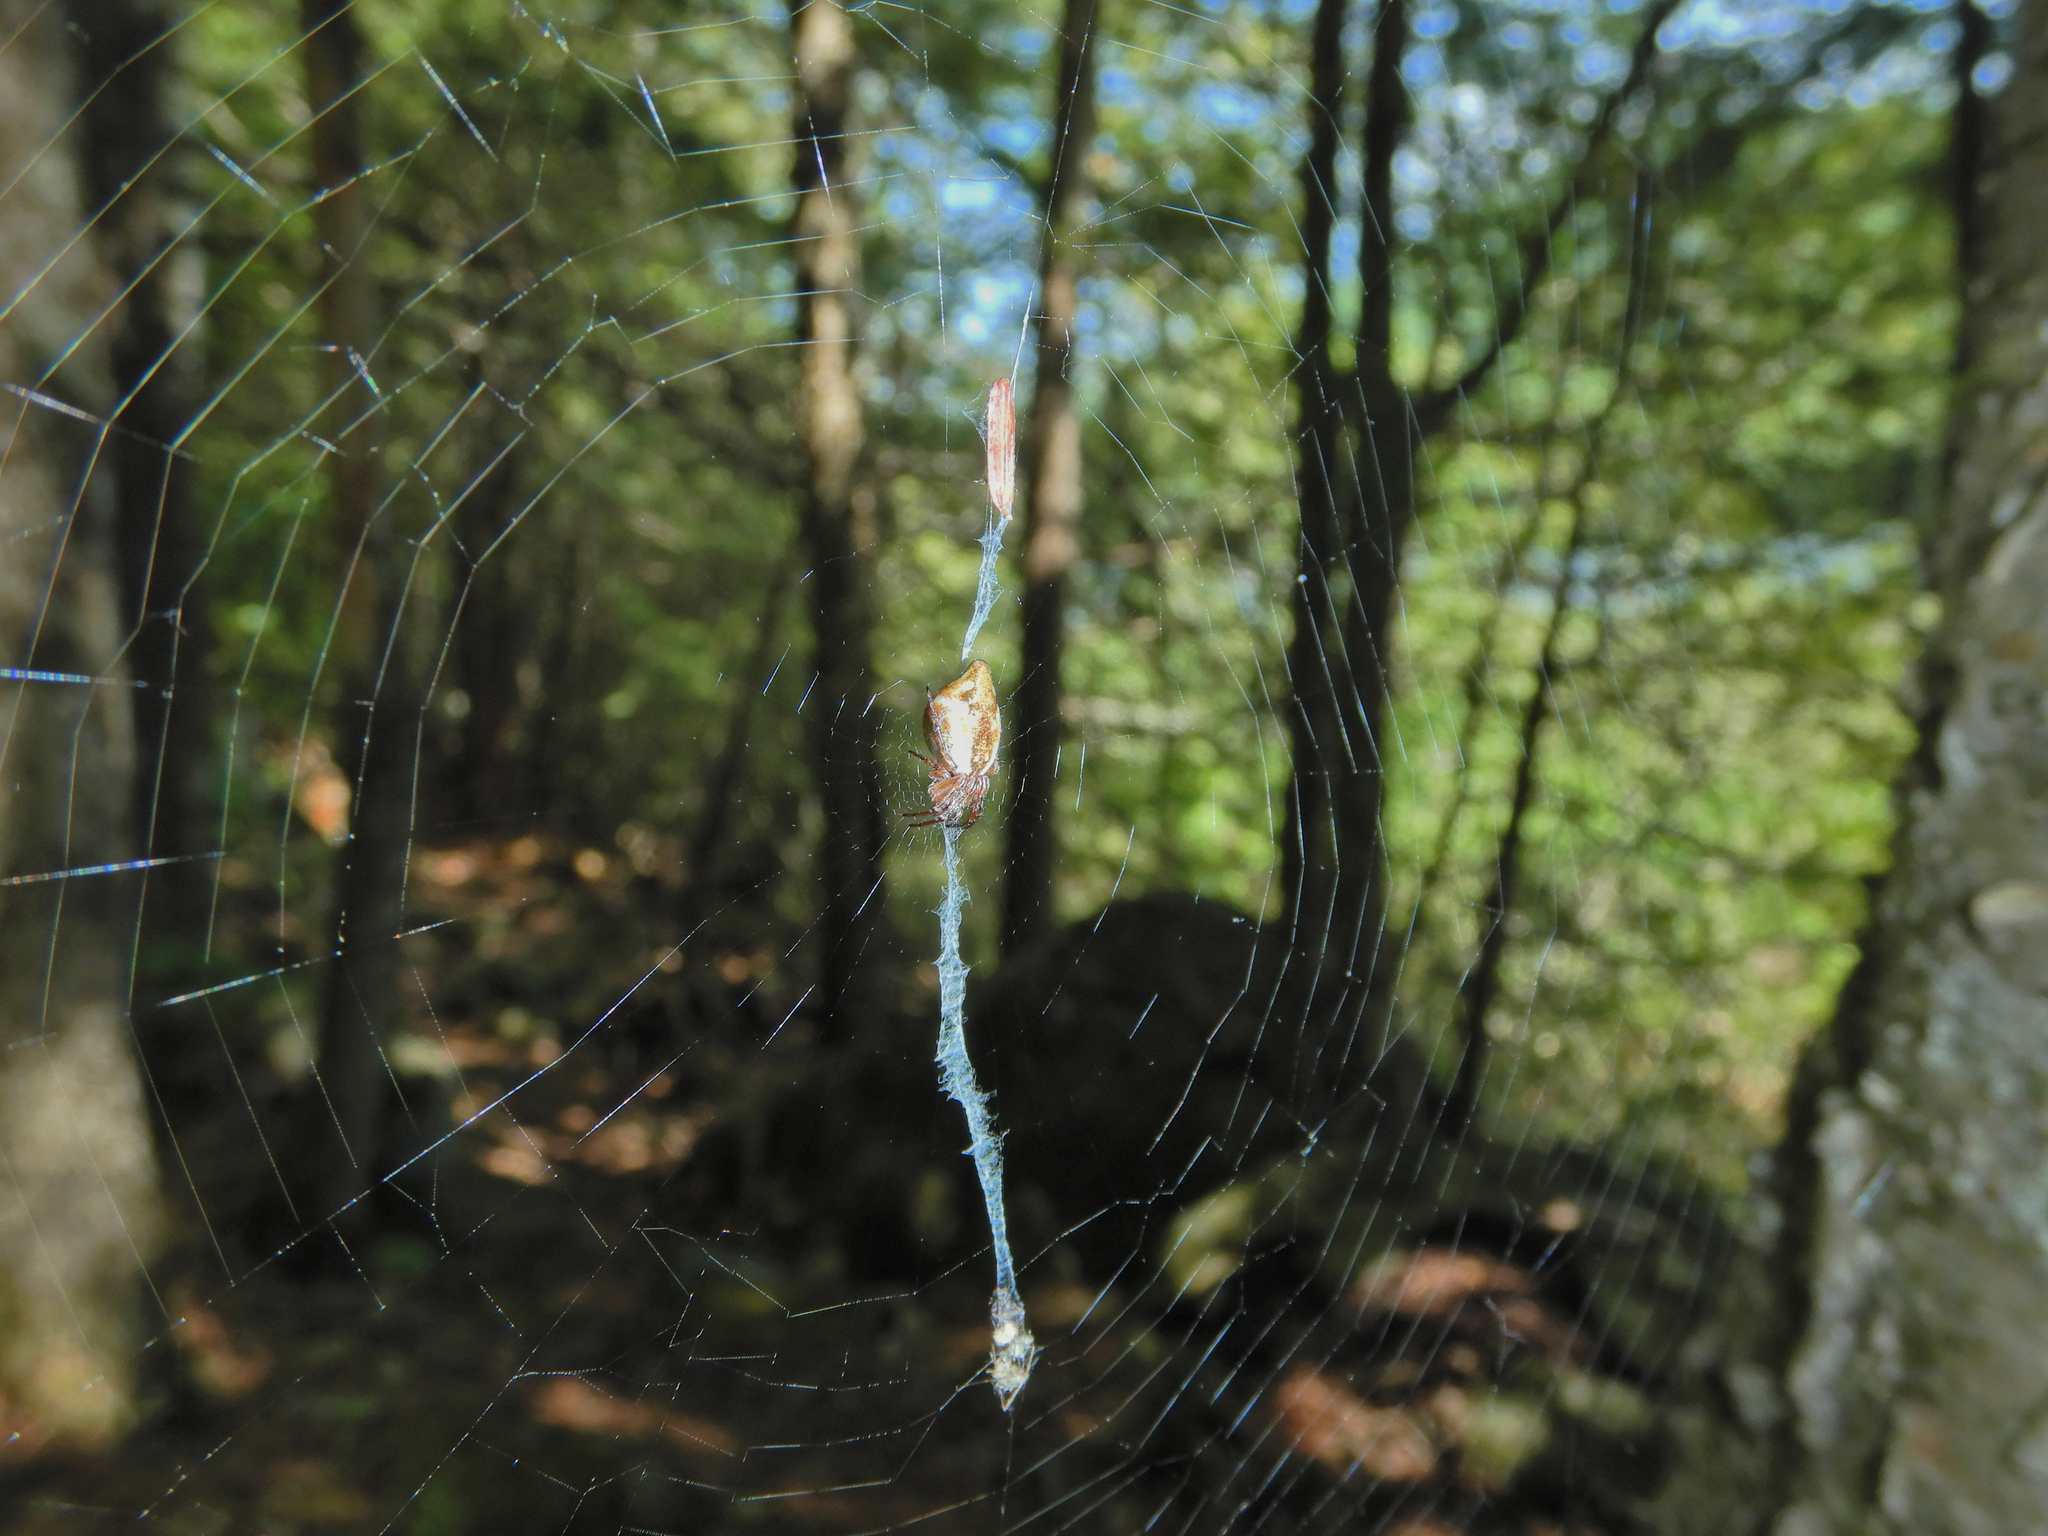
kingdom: Animalia
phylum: Arthropoda
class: Arachnida
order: Araneae
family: Araneidae
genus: Cyclosa
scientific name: Cyclosa conica
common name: Conical trashline orbweaver
